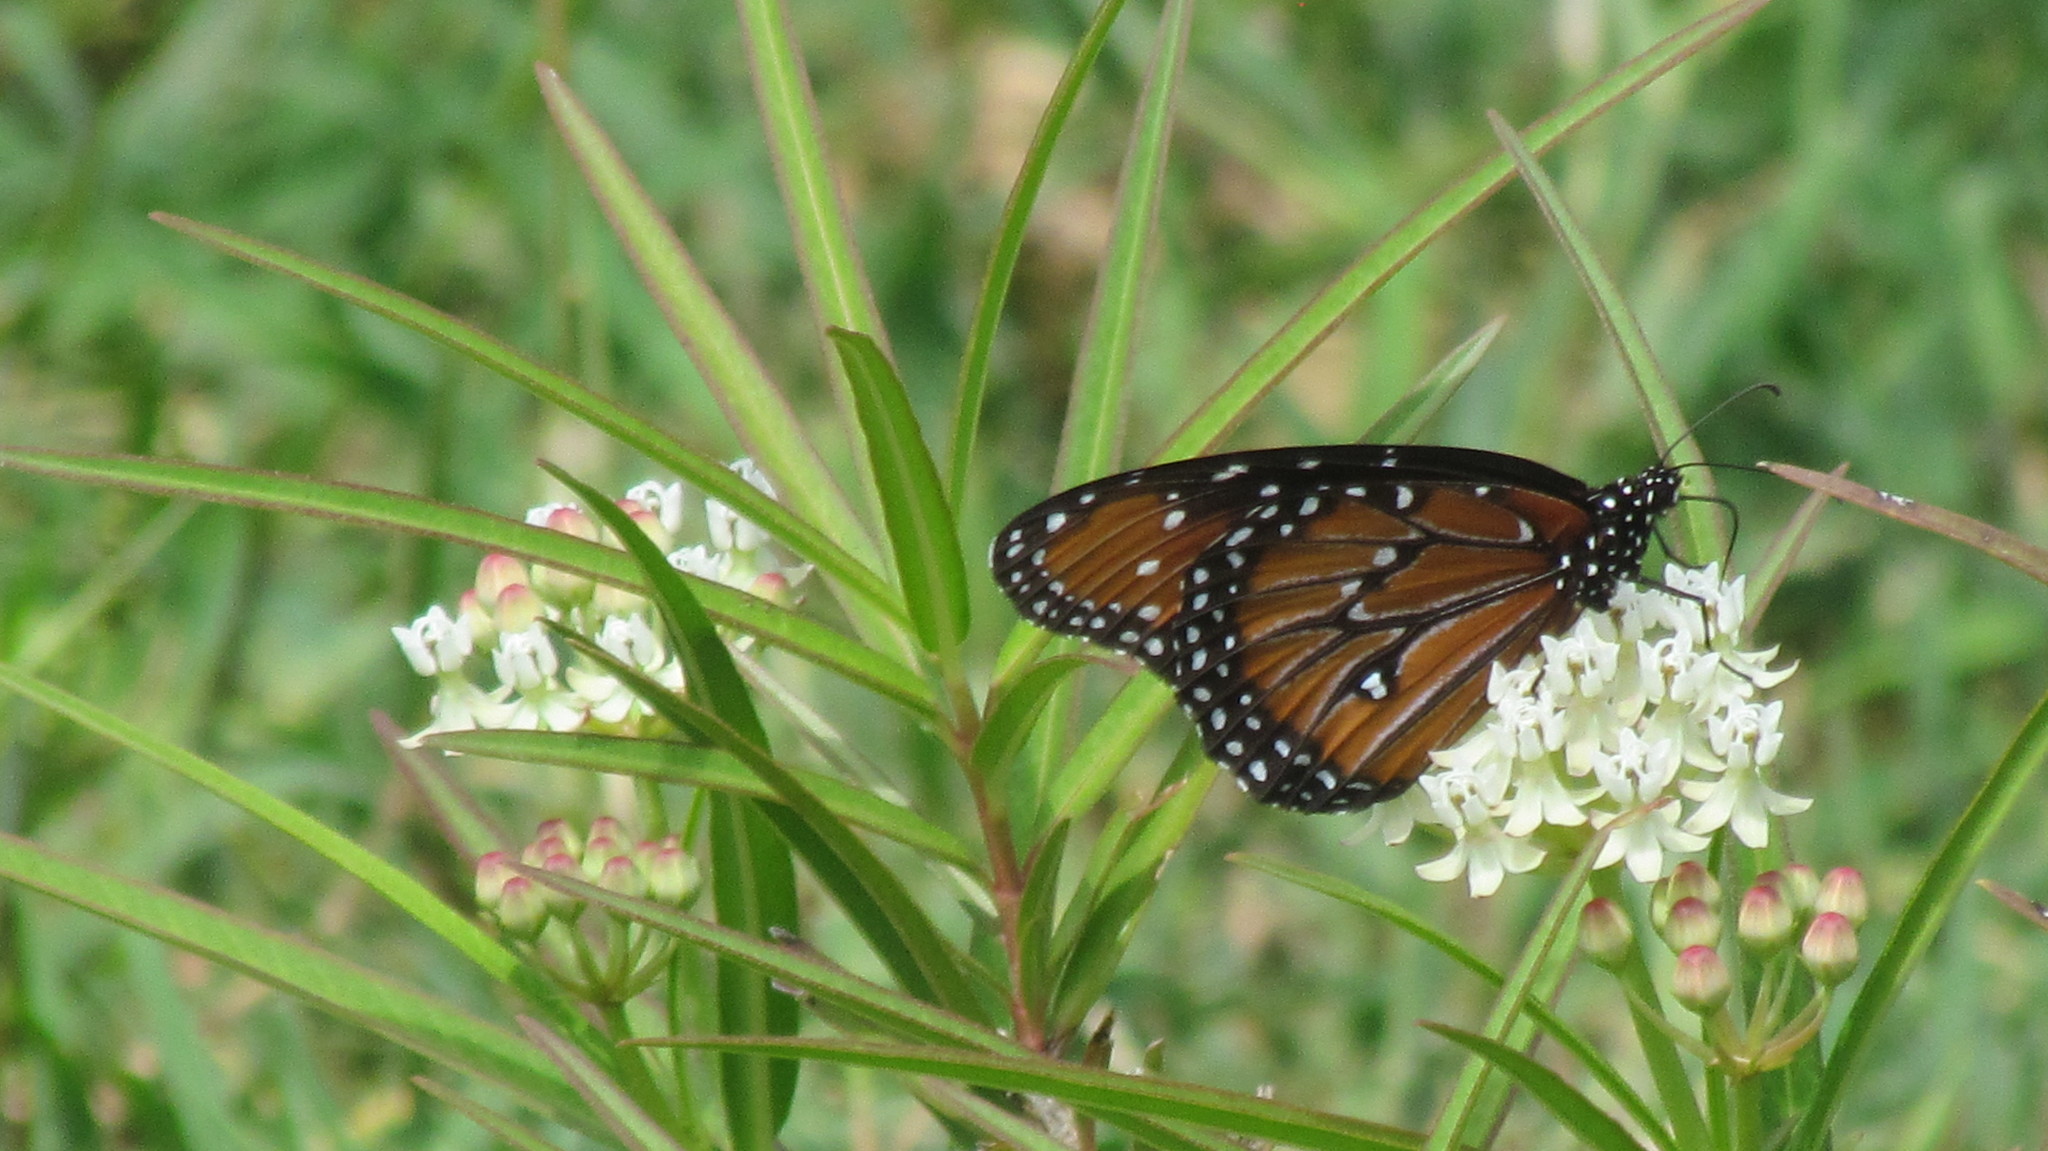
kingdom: Animalia
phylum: Arthropoda
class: Insecta
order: Lepidoptera
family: Nymphalidae
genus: Danaus
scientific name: Danaus gilippus
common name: Queen
